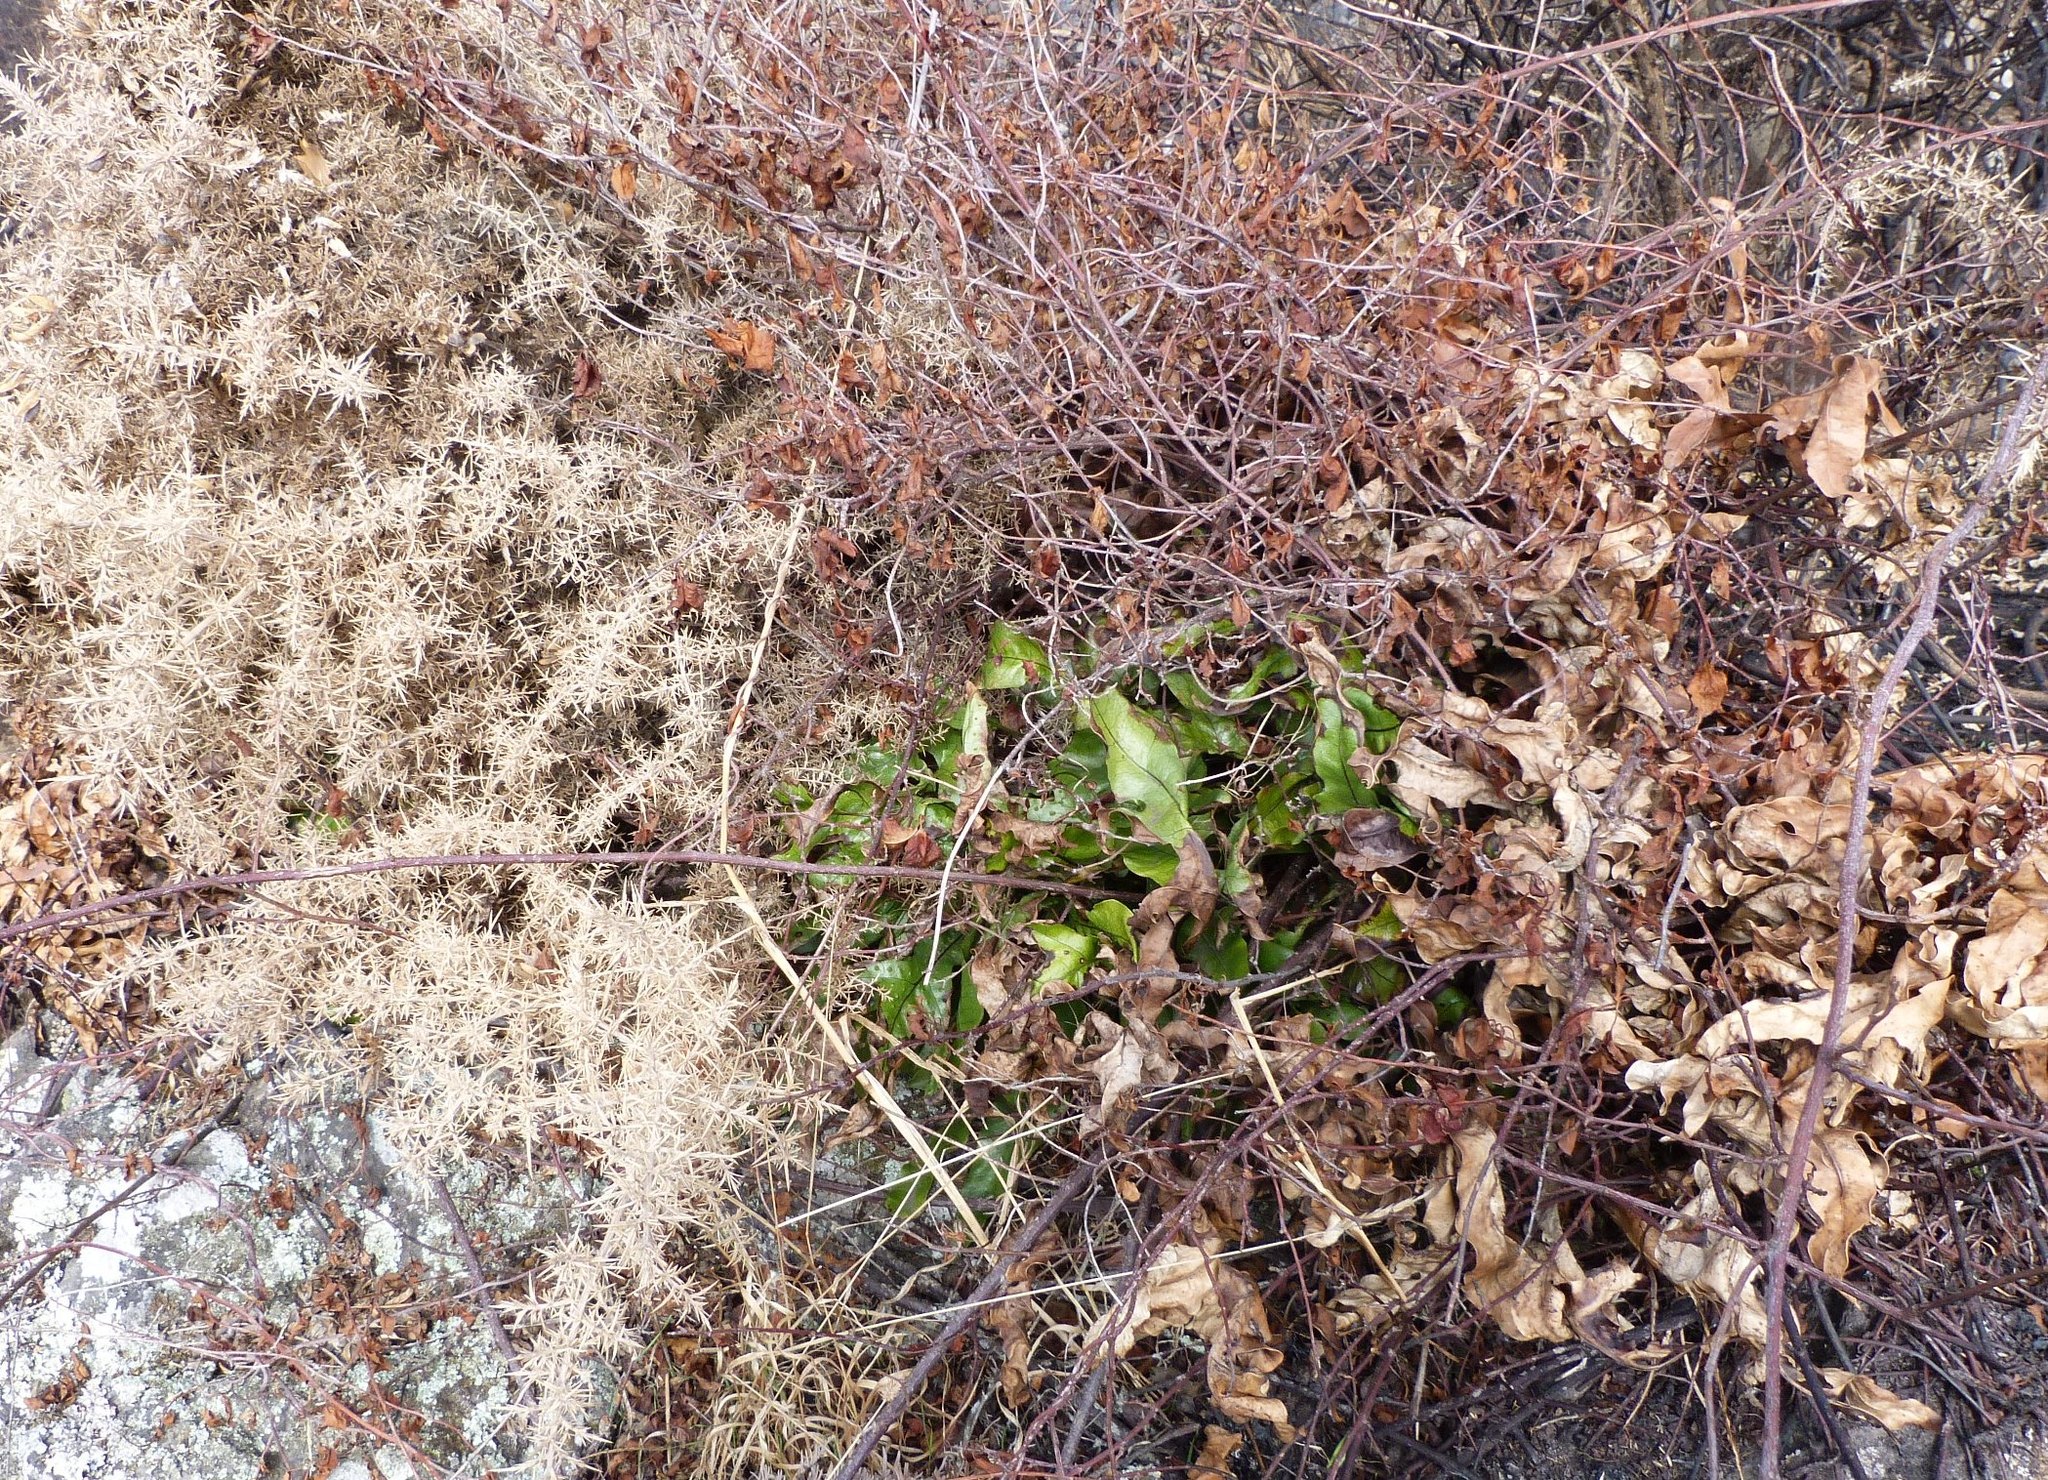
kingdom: Plantae
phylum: Tracheophyta
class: Polypodiopsida
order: Polypodiales
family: Polypodiaceae
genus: Lecanopteris
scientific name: Lecanopteris pustulata
